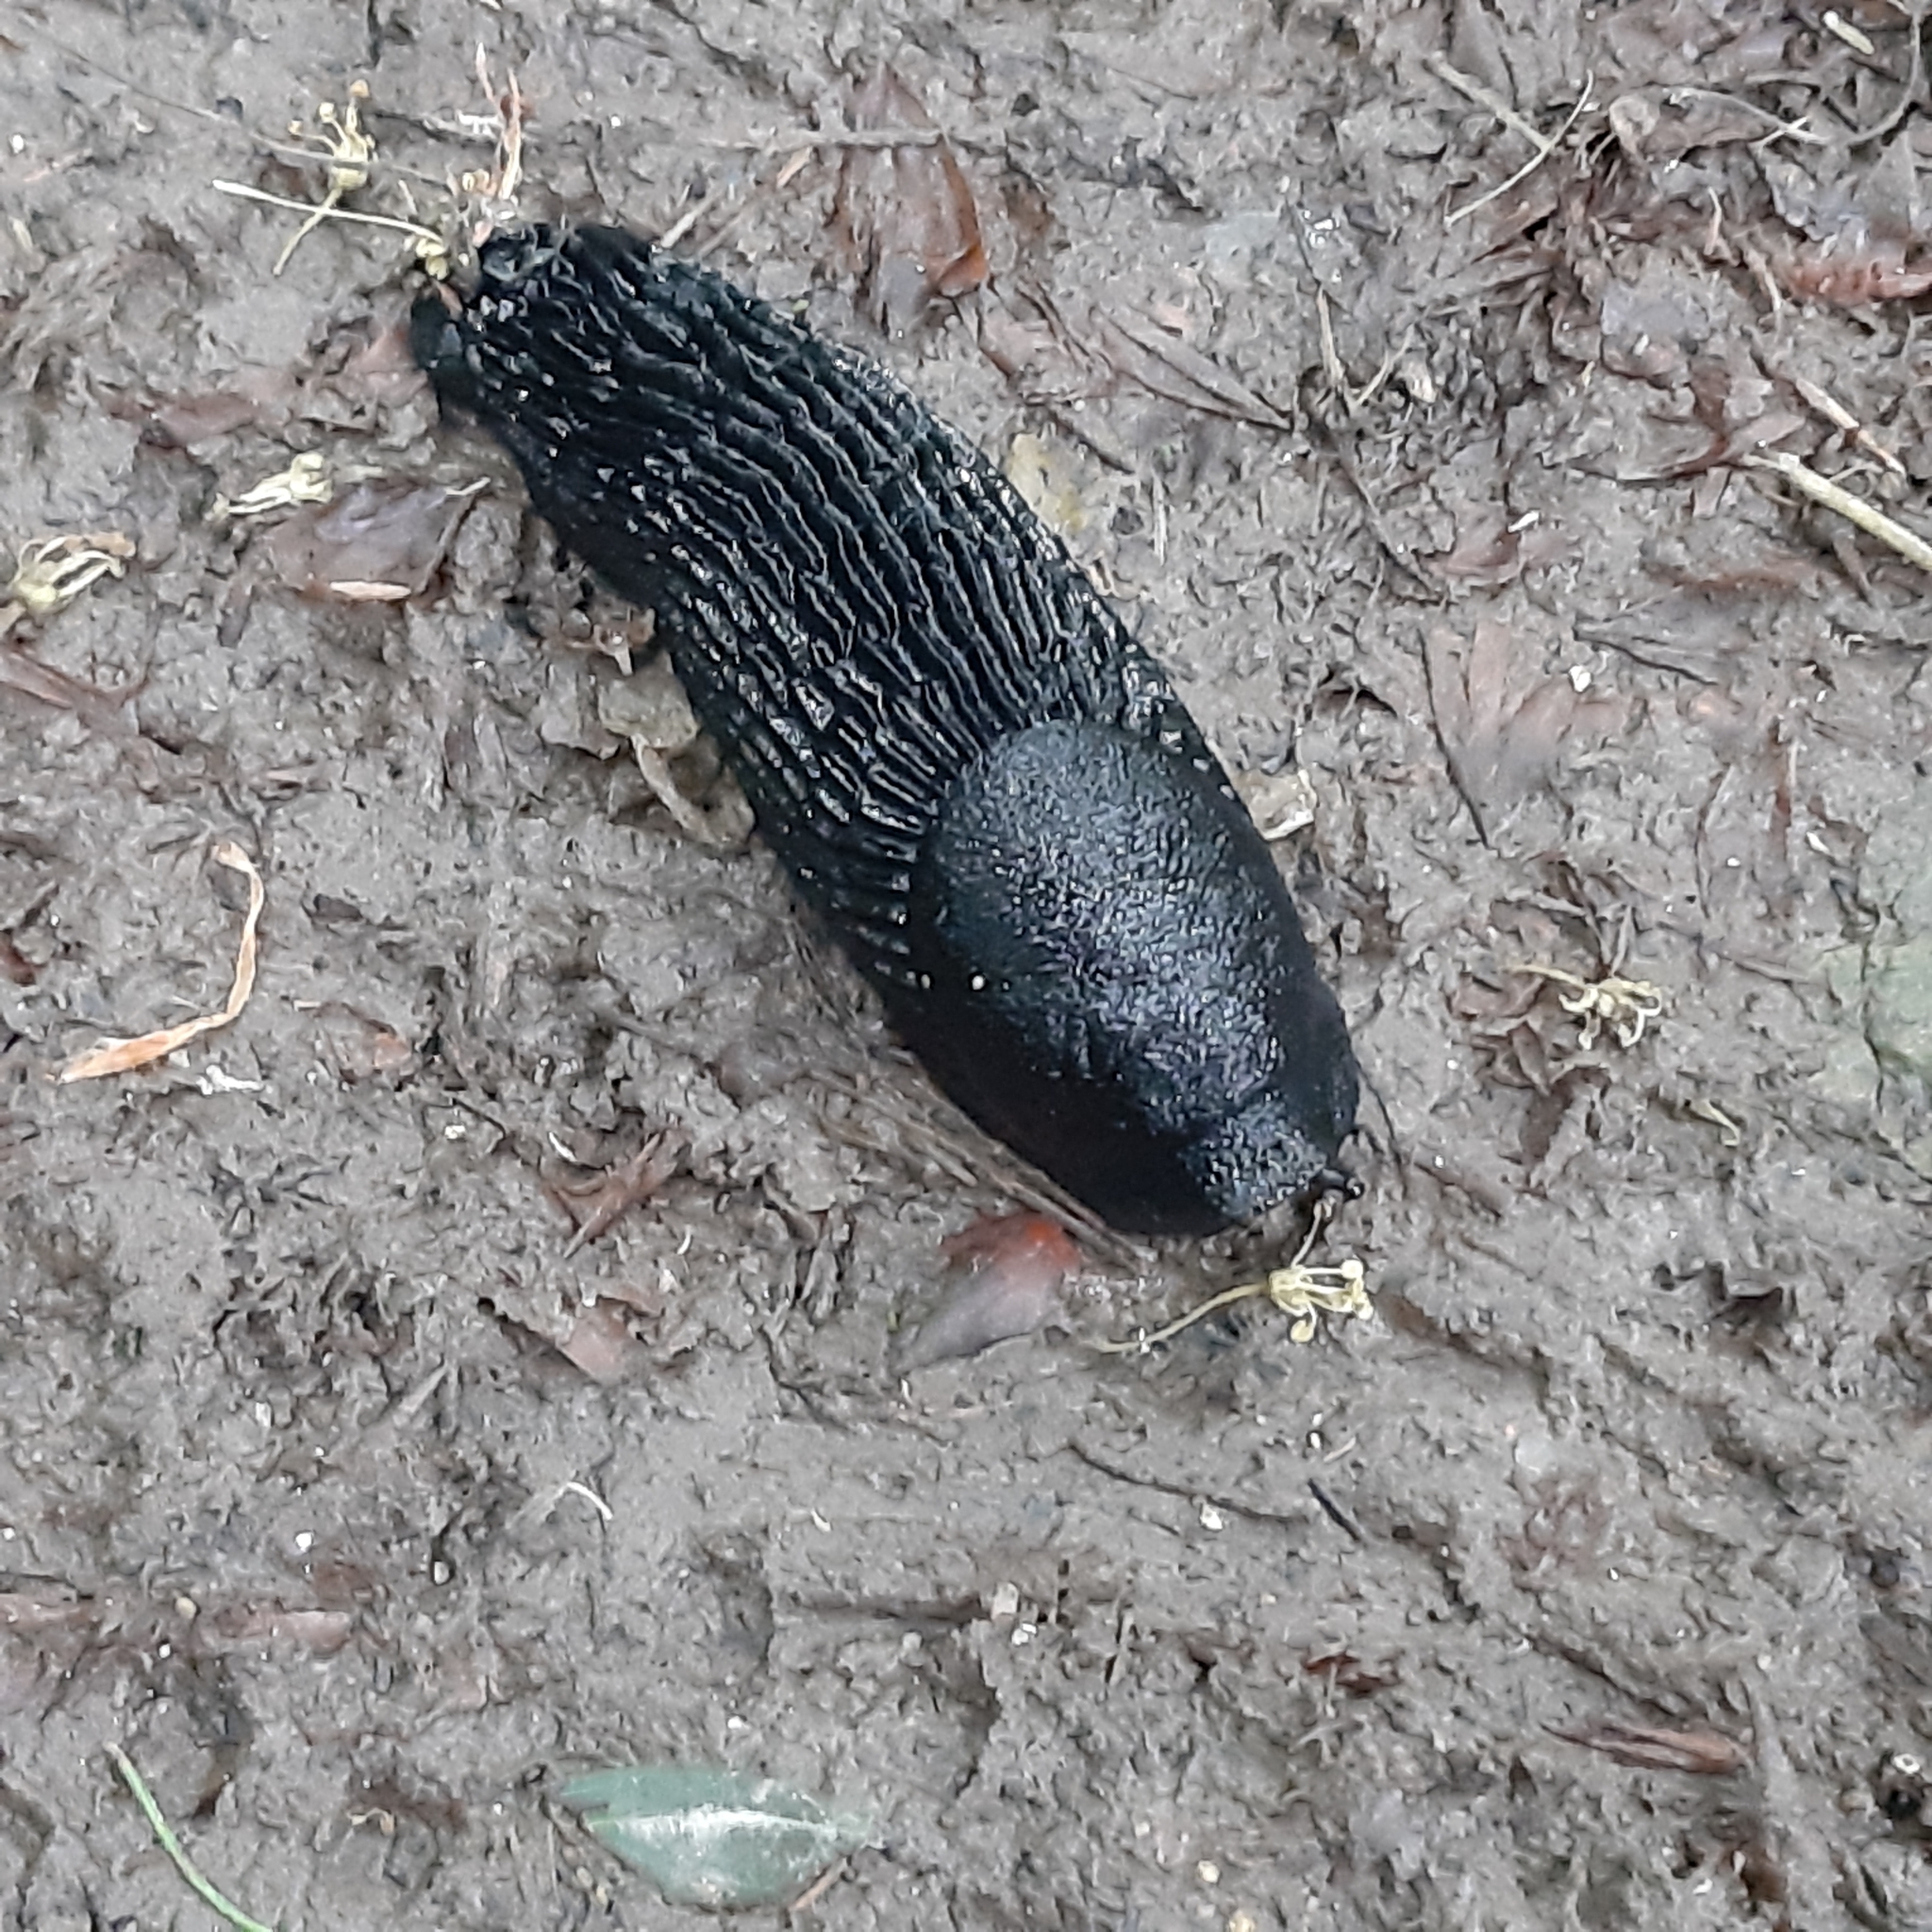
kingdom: Animalia
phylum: Mollusca
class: Gastropoda
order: Stylommatophora
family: Arionidae
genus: Arion
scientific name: Arion ater
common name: Black arion
